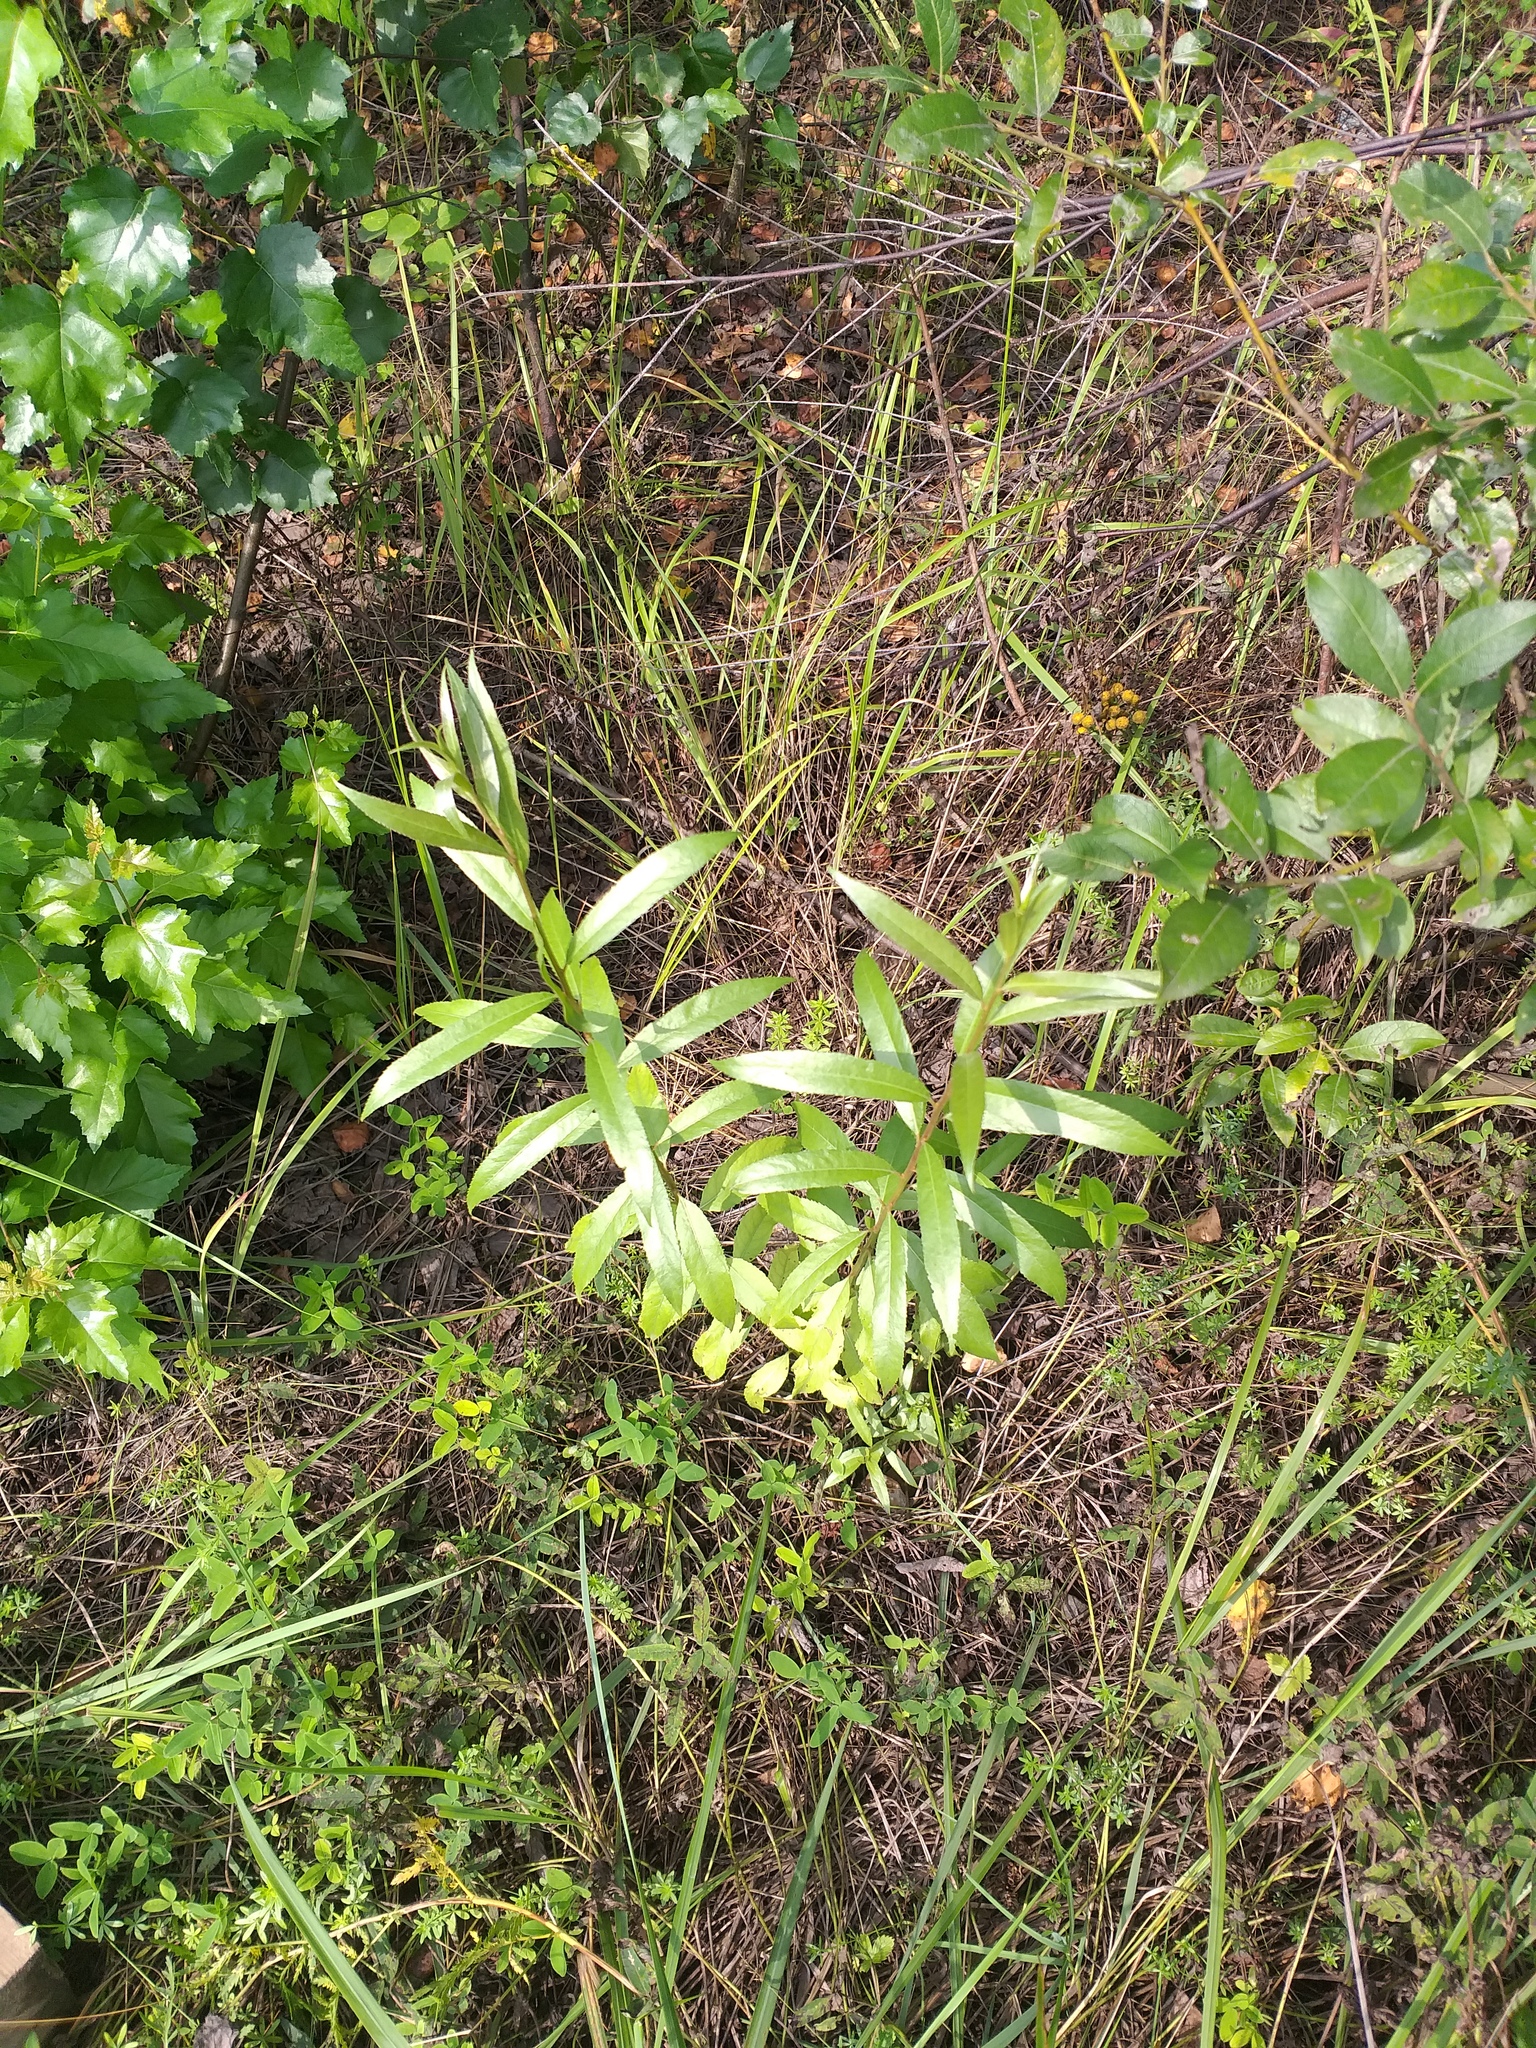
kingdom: Plantae
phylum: Tracheophyta
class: Magnoliopsida
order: Malpighiales
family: Salicaceae
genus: Salix
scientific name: Salix alba
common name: White willow
